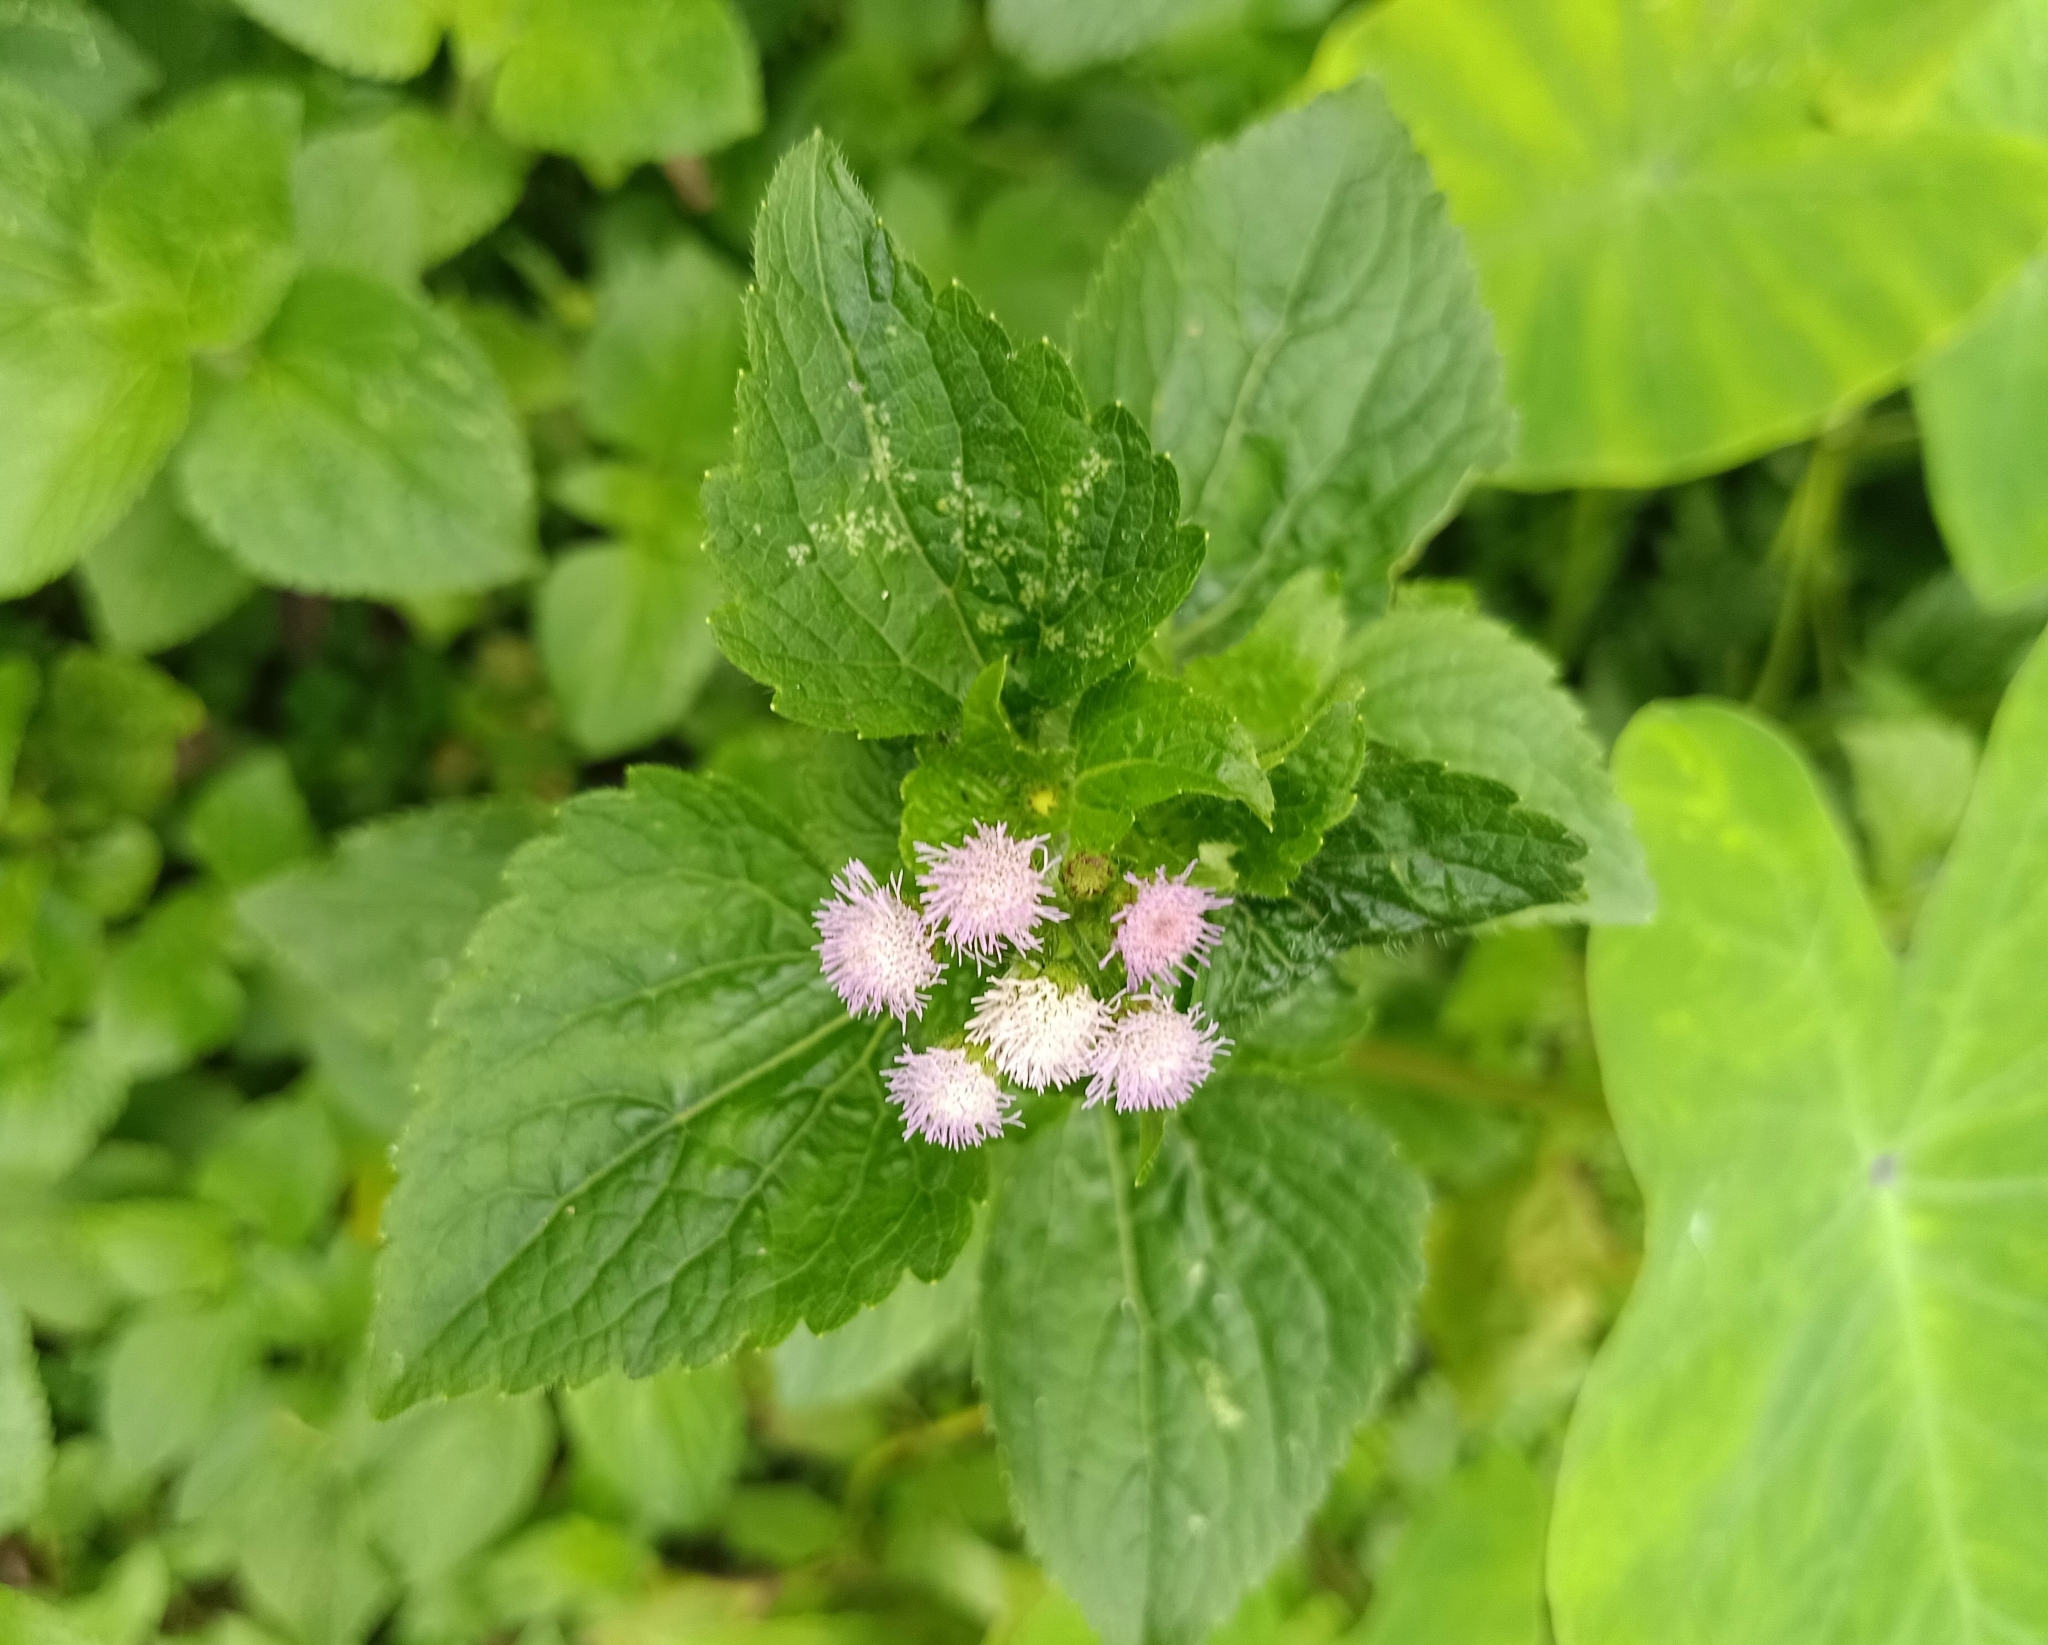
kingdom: Plantae
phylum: Tracheophyta
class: Magnoliopsida
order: Asterales
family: Asteraceae
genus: Ageratum
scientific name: Ageratum conyzoides
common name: Tropical whiteweed
